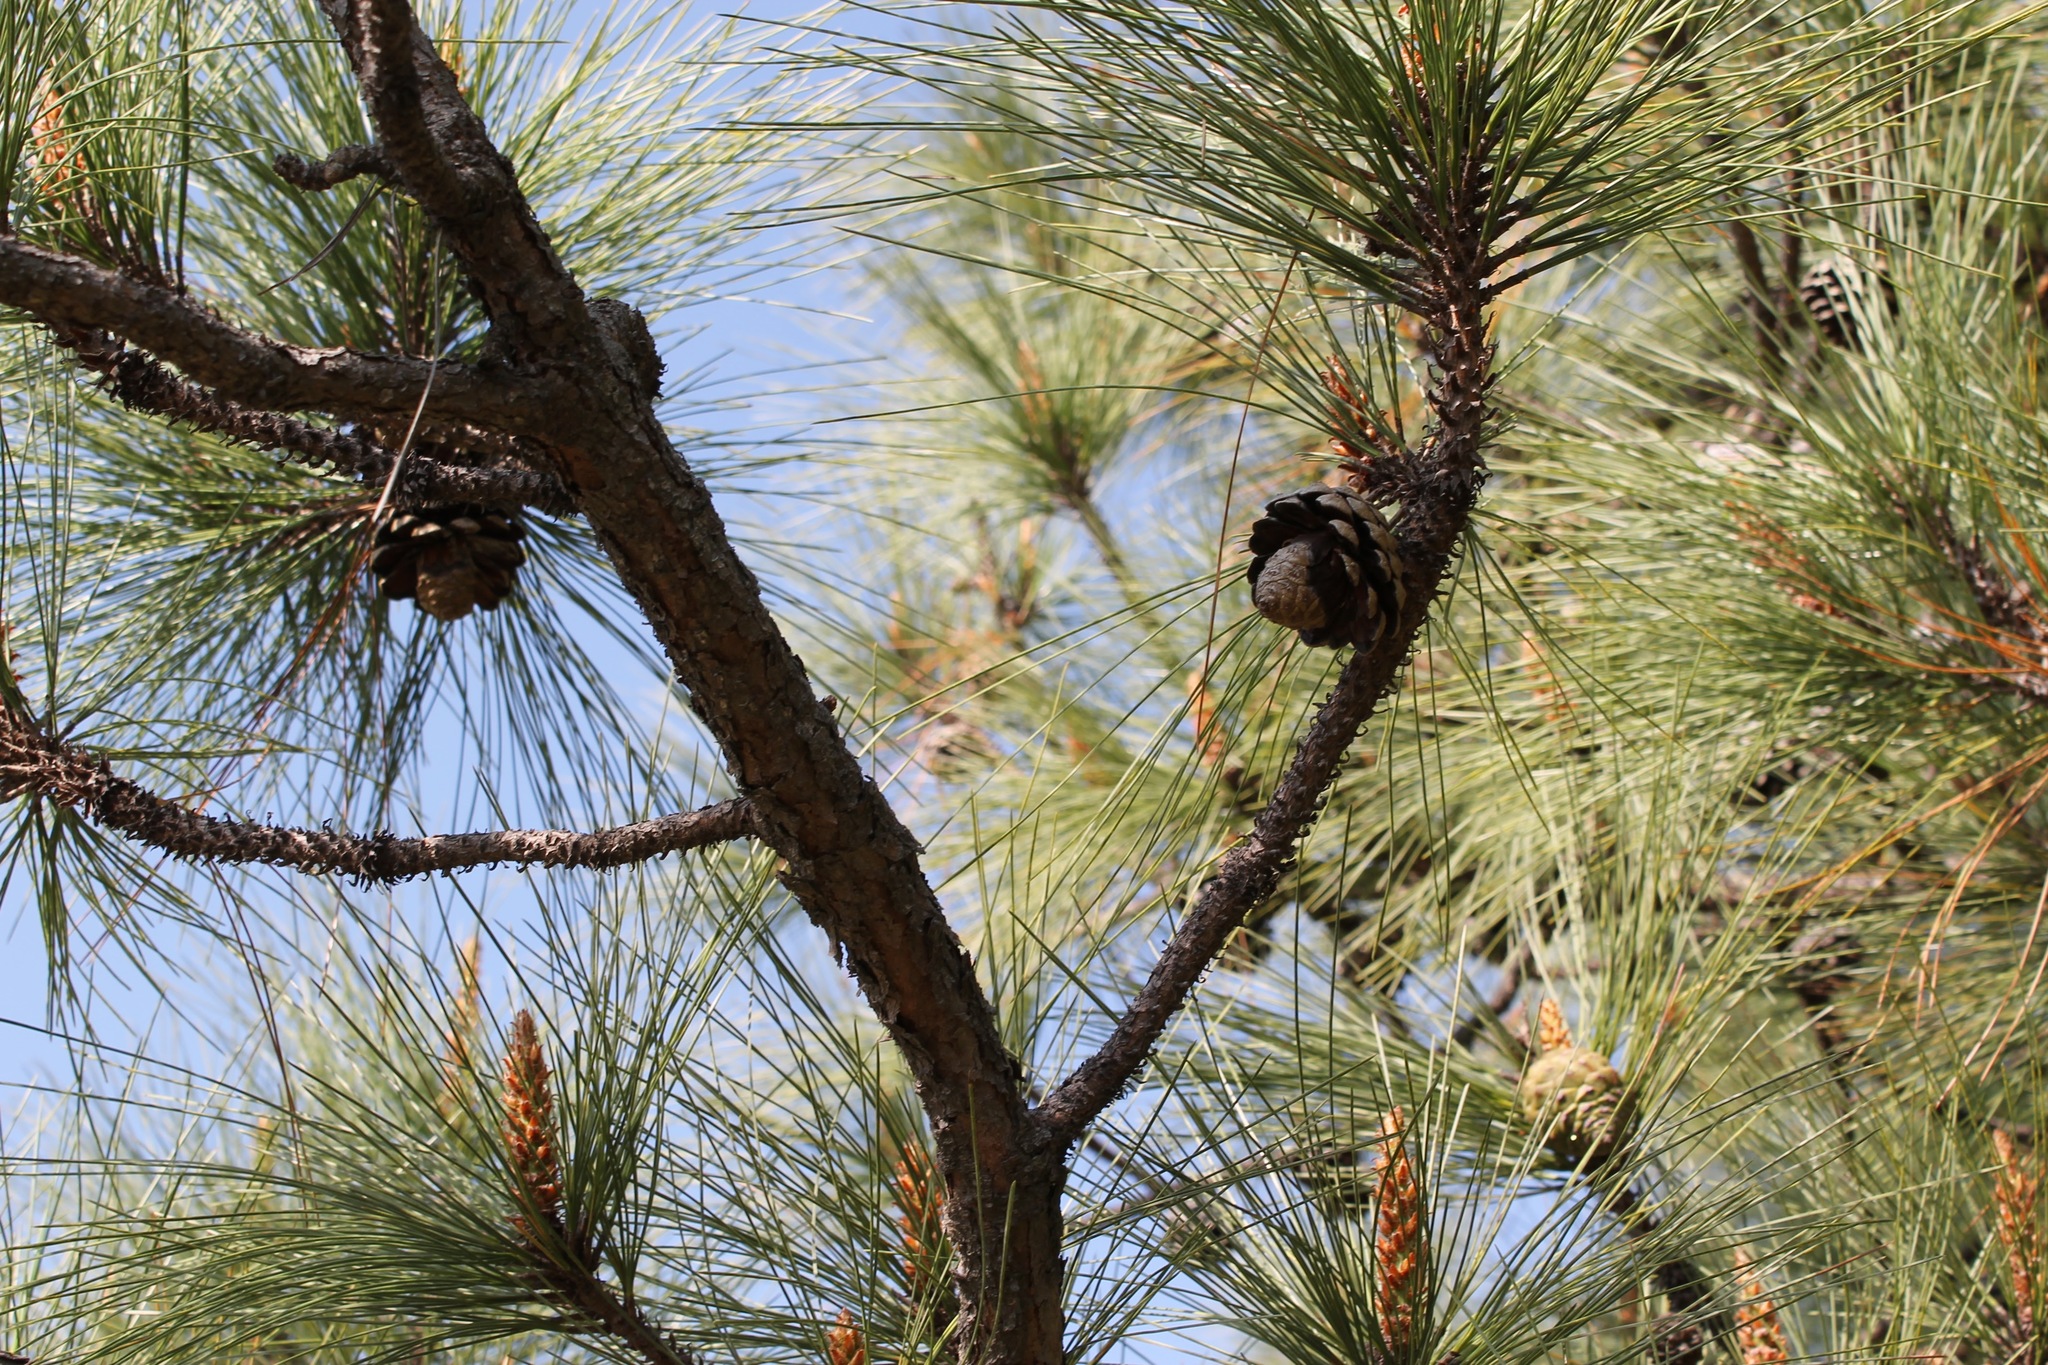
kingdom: Plantae
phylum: Tracheophyta
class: Pinopsida
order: Pinales
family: Pinaceae
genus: Pinus
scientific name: Pinus oocarpa
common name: Egg-cone pine
